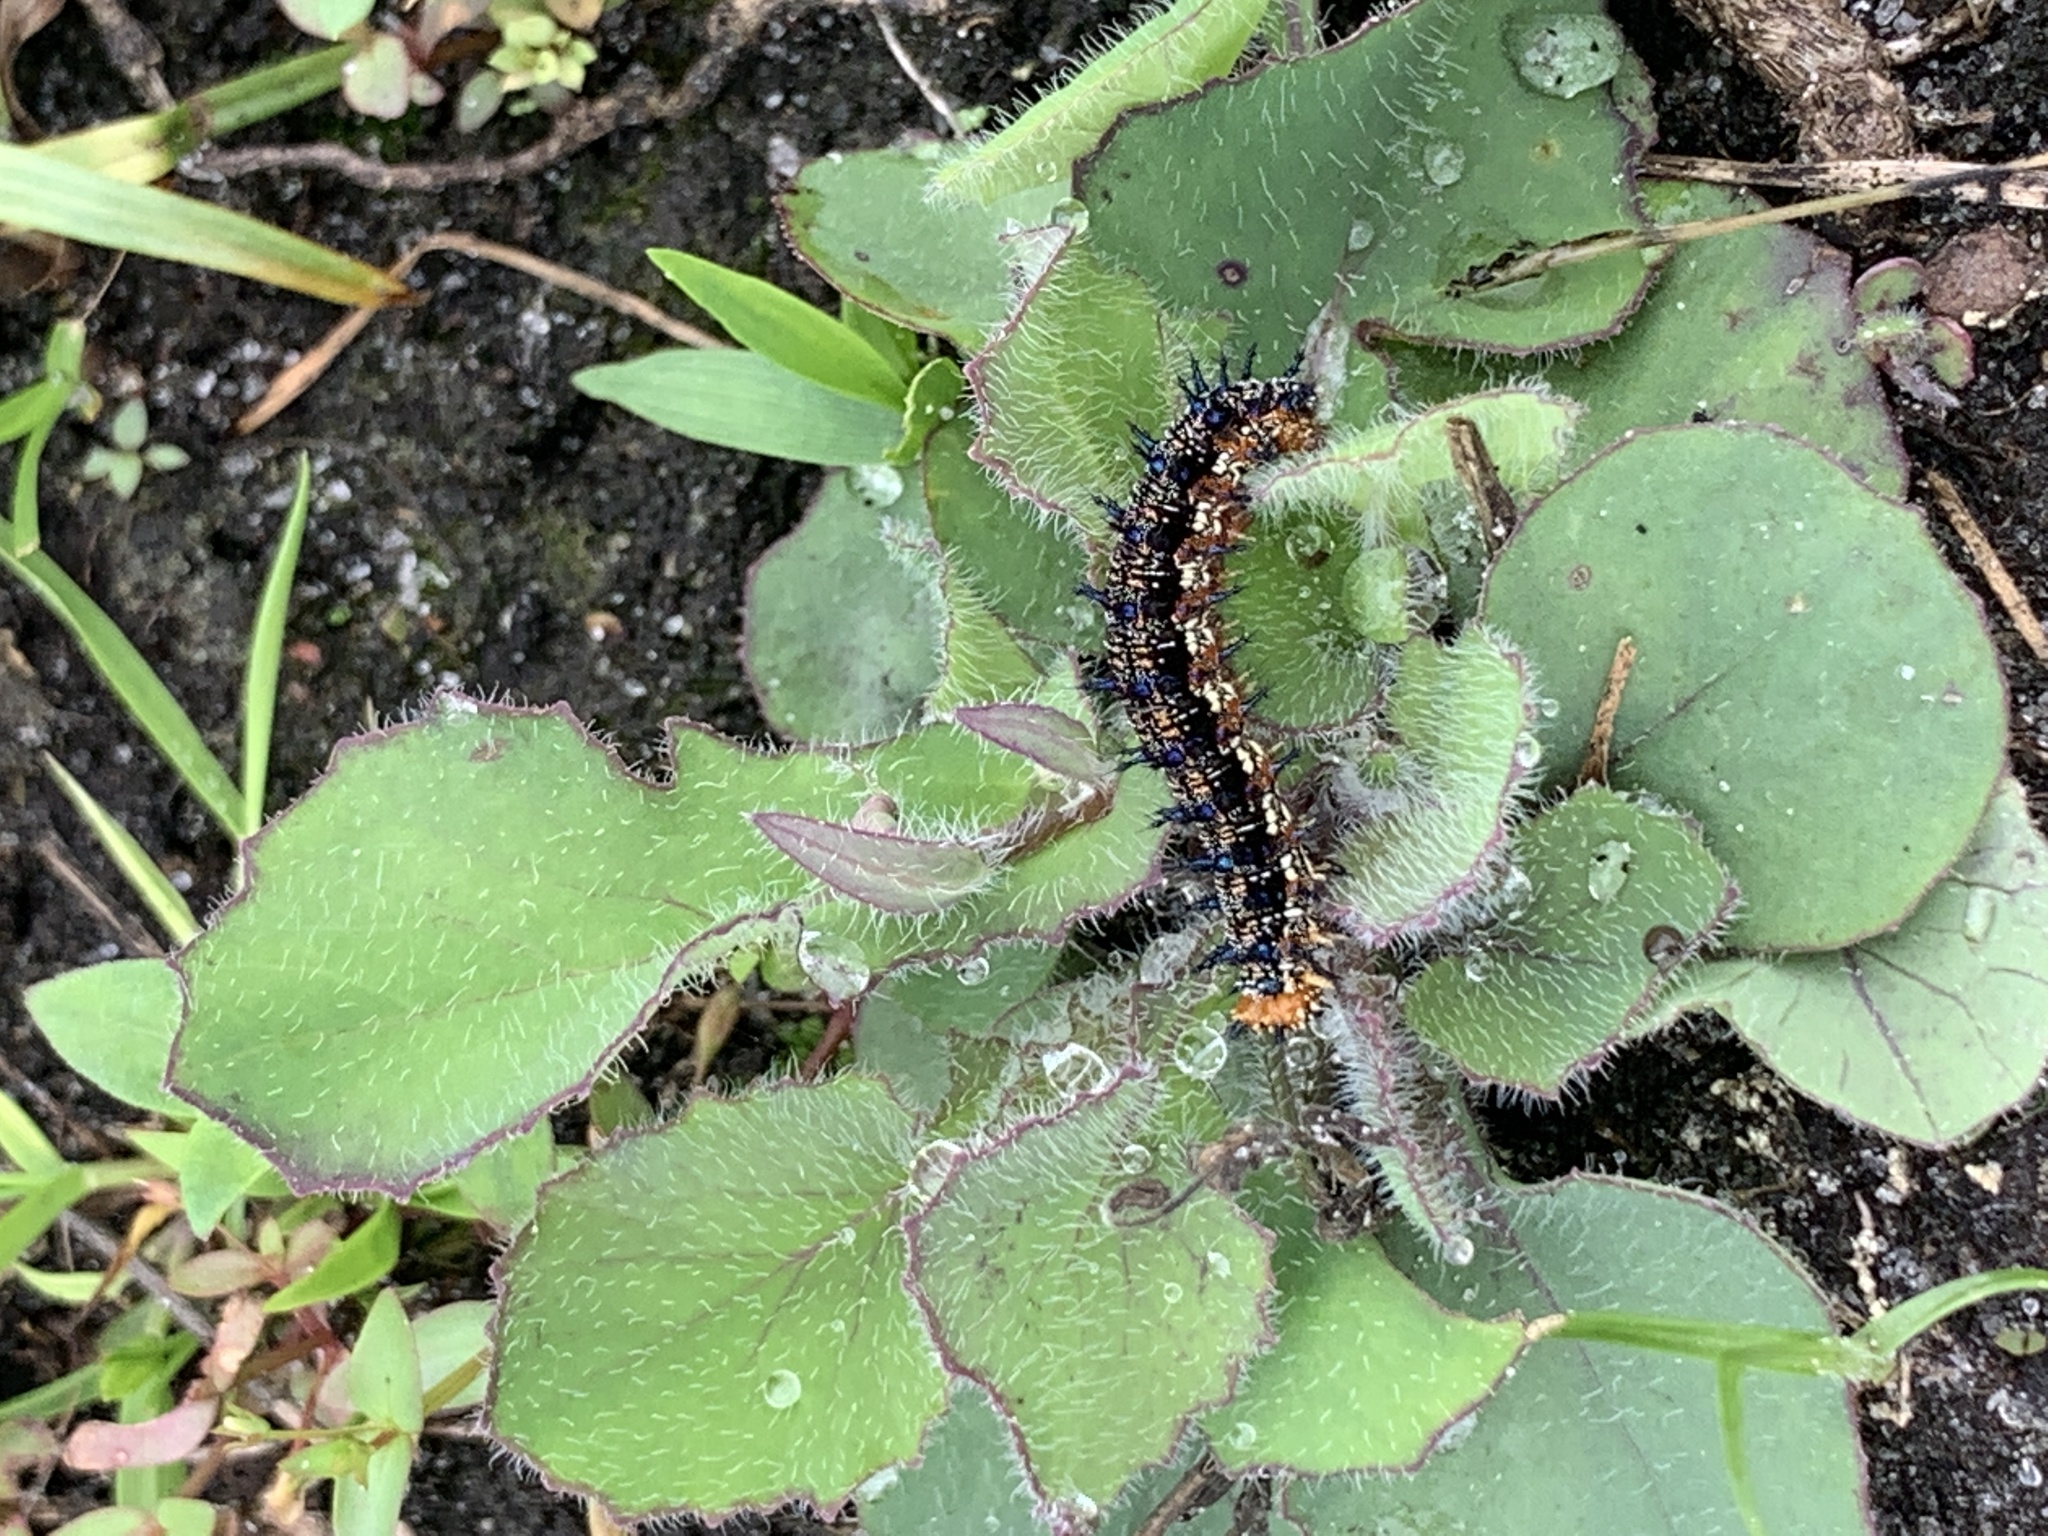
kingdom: Animalia
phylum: Arthropoda
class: Insecta
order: Lepidoptera
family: Nymphalidae
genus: Junonia
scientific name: Junonia coenia
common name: Common buckeye
